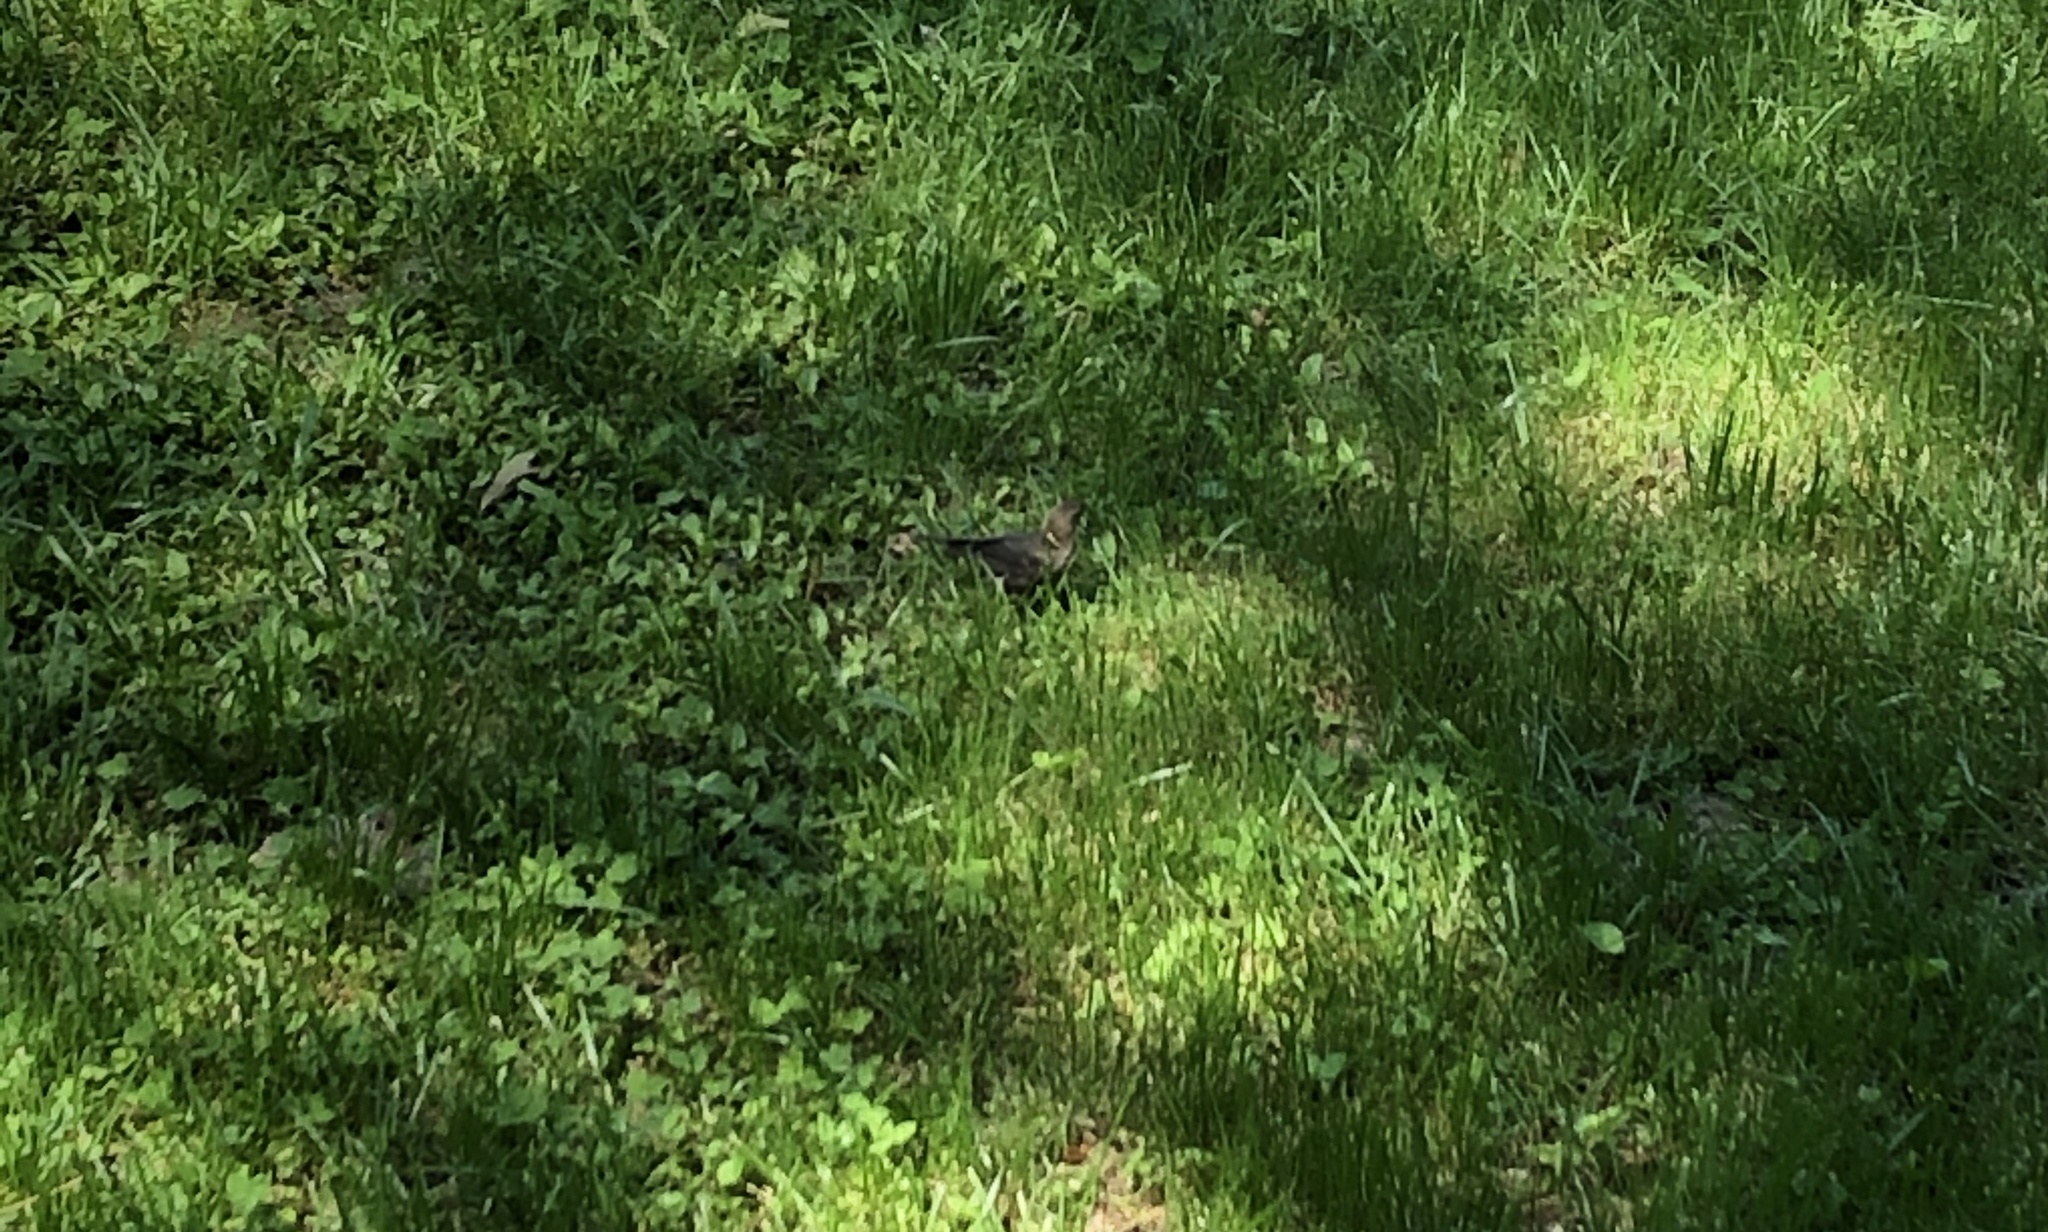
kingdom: Animalia
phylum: Chordata
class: Aves
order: Passeriformes
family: Icteridae
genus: Molothrus
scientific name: Molothrus ater
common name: Brown-headed cowbird
